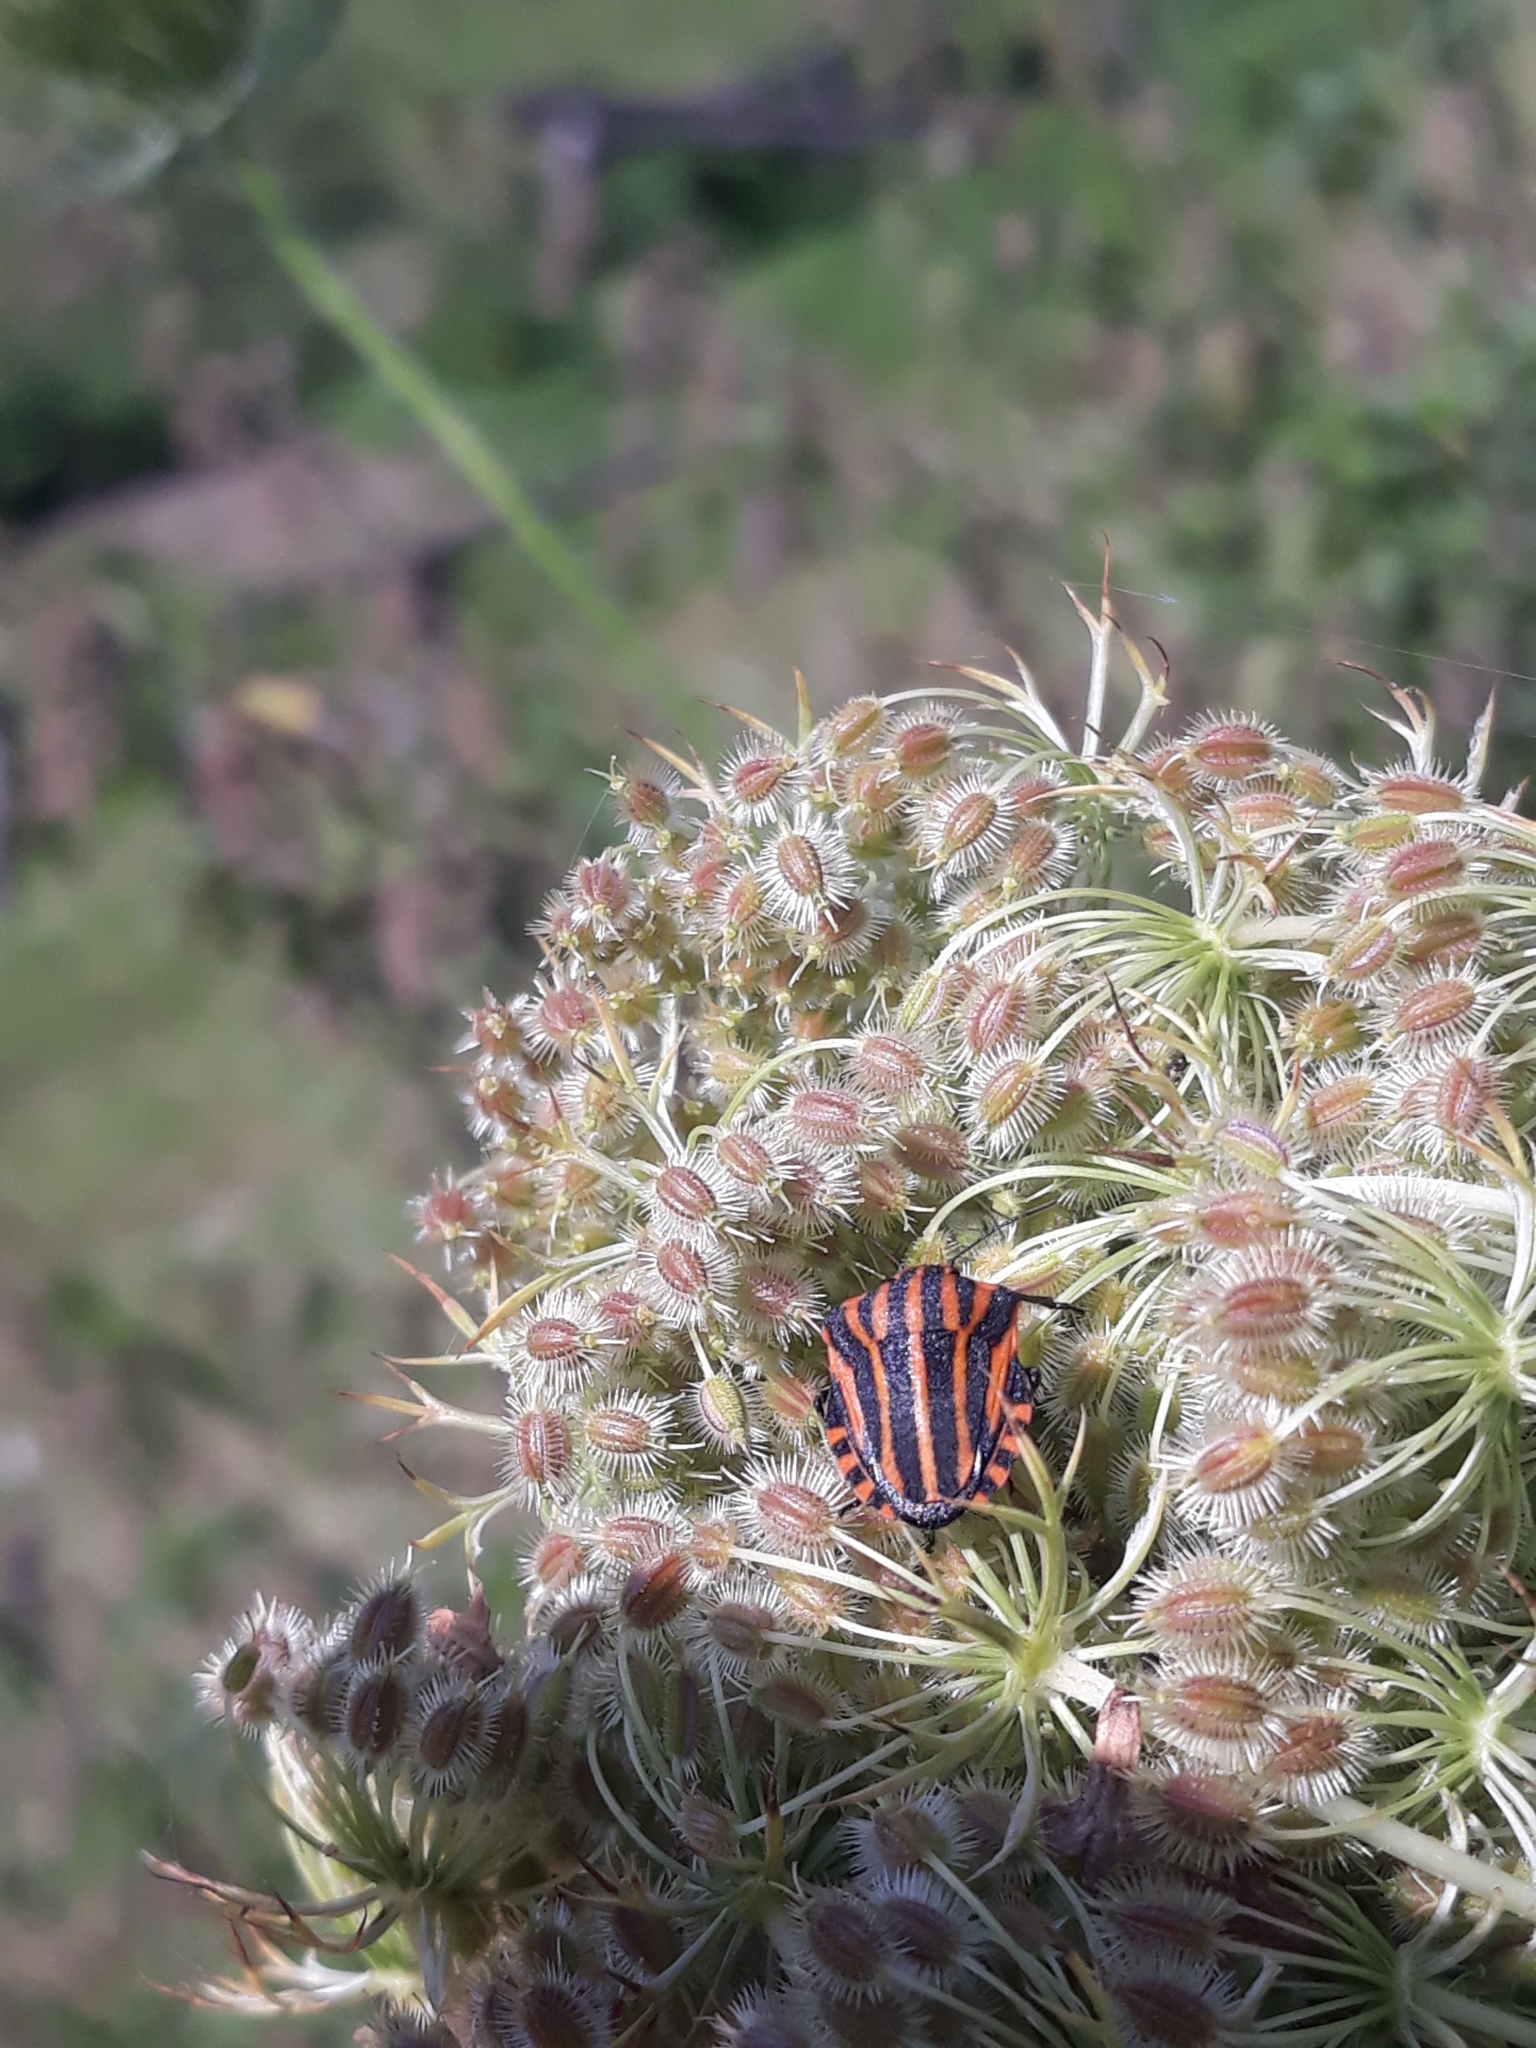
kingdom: Animalia
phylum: Arthropoda
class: Insecta
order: Hemiptera
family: Pentatomidae
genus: Graphosoma
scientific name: Graphosoma italicum
